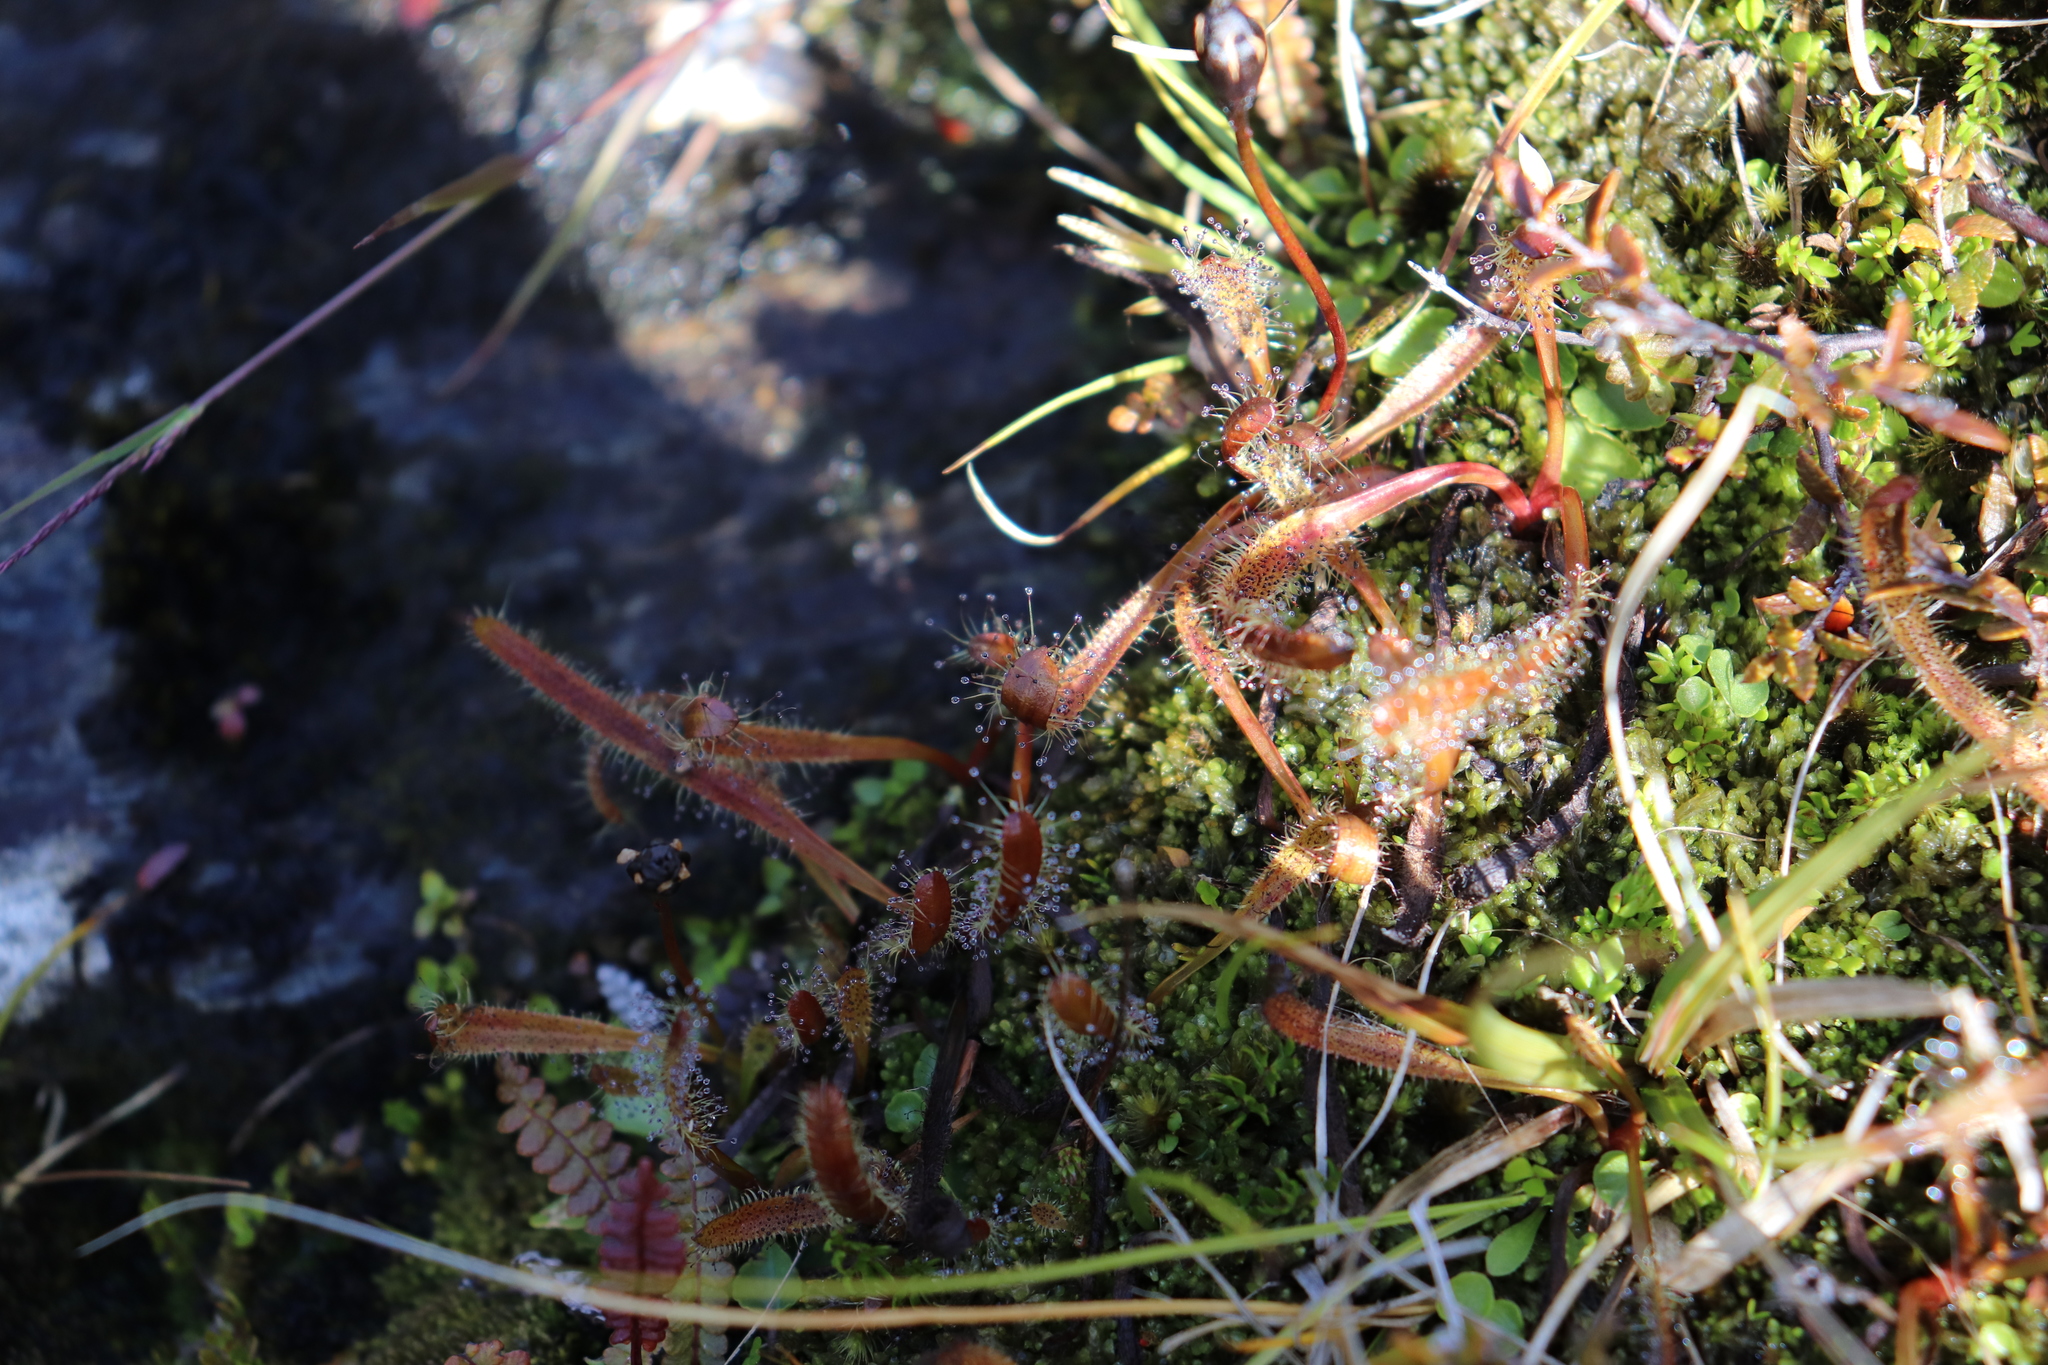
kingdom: Plantae
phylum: Tracheophyta
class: Magnoliopsida
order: Caryophyllales
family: Droseraceae
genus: Drosera
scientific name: Drosera arcturi
